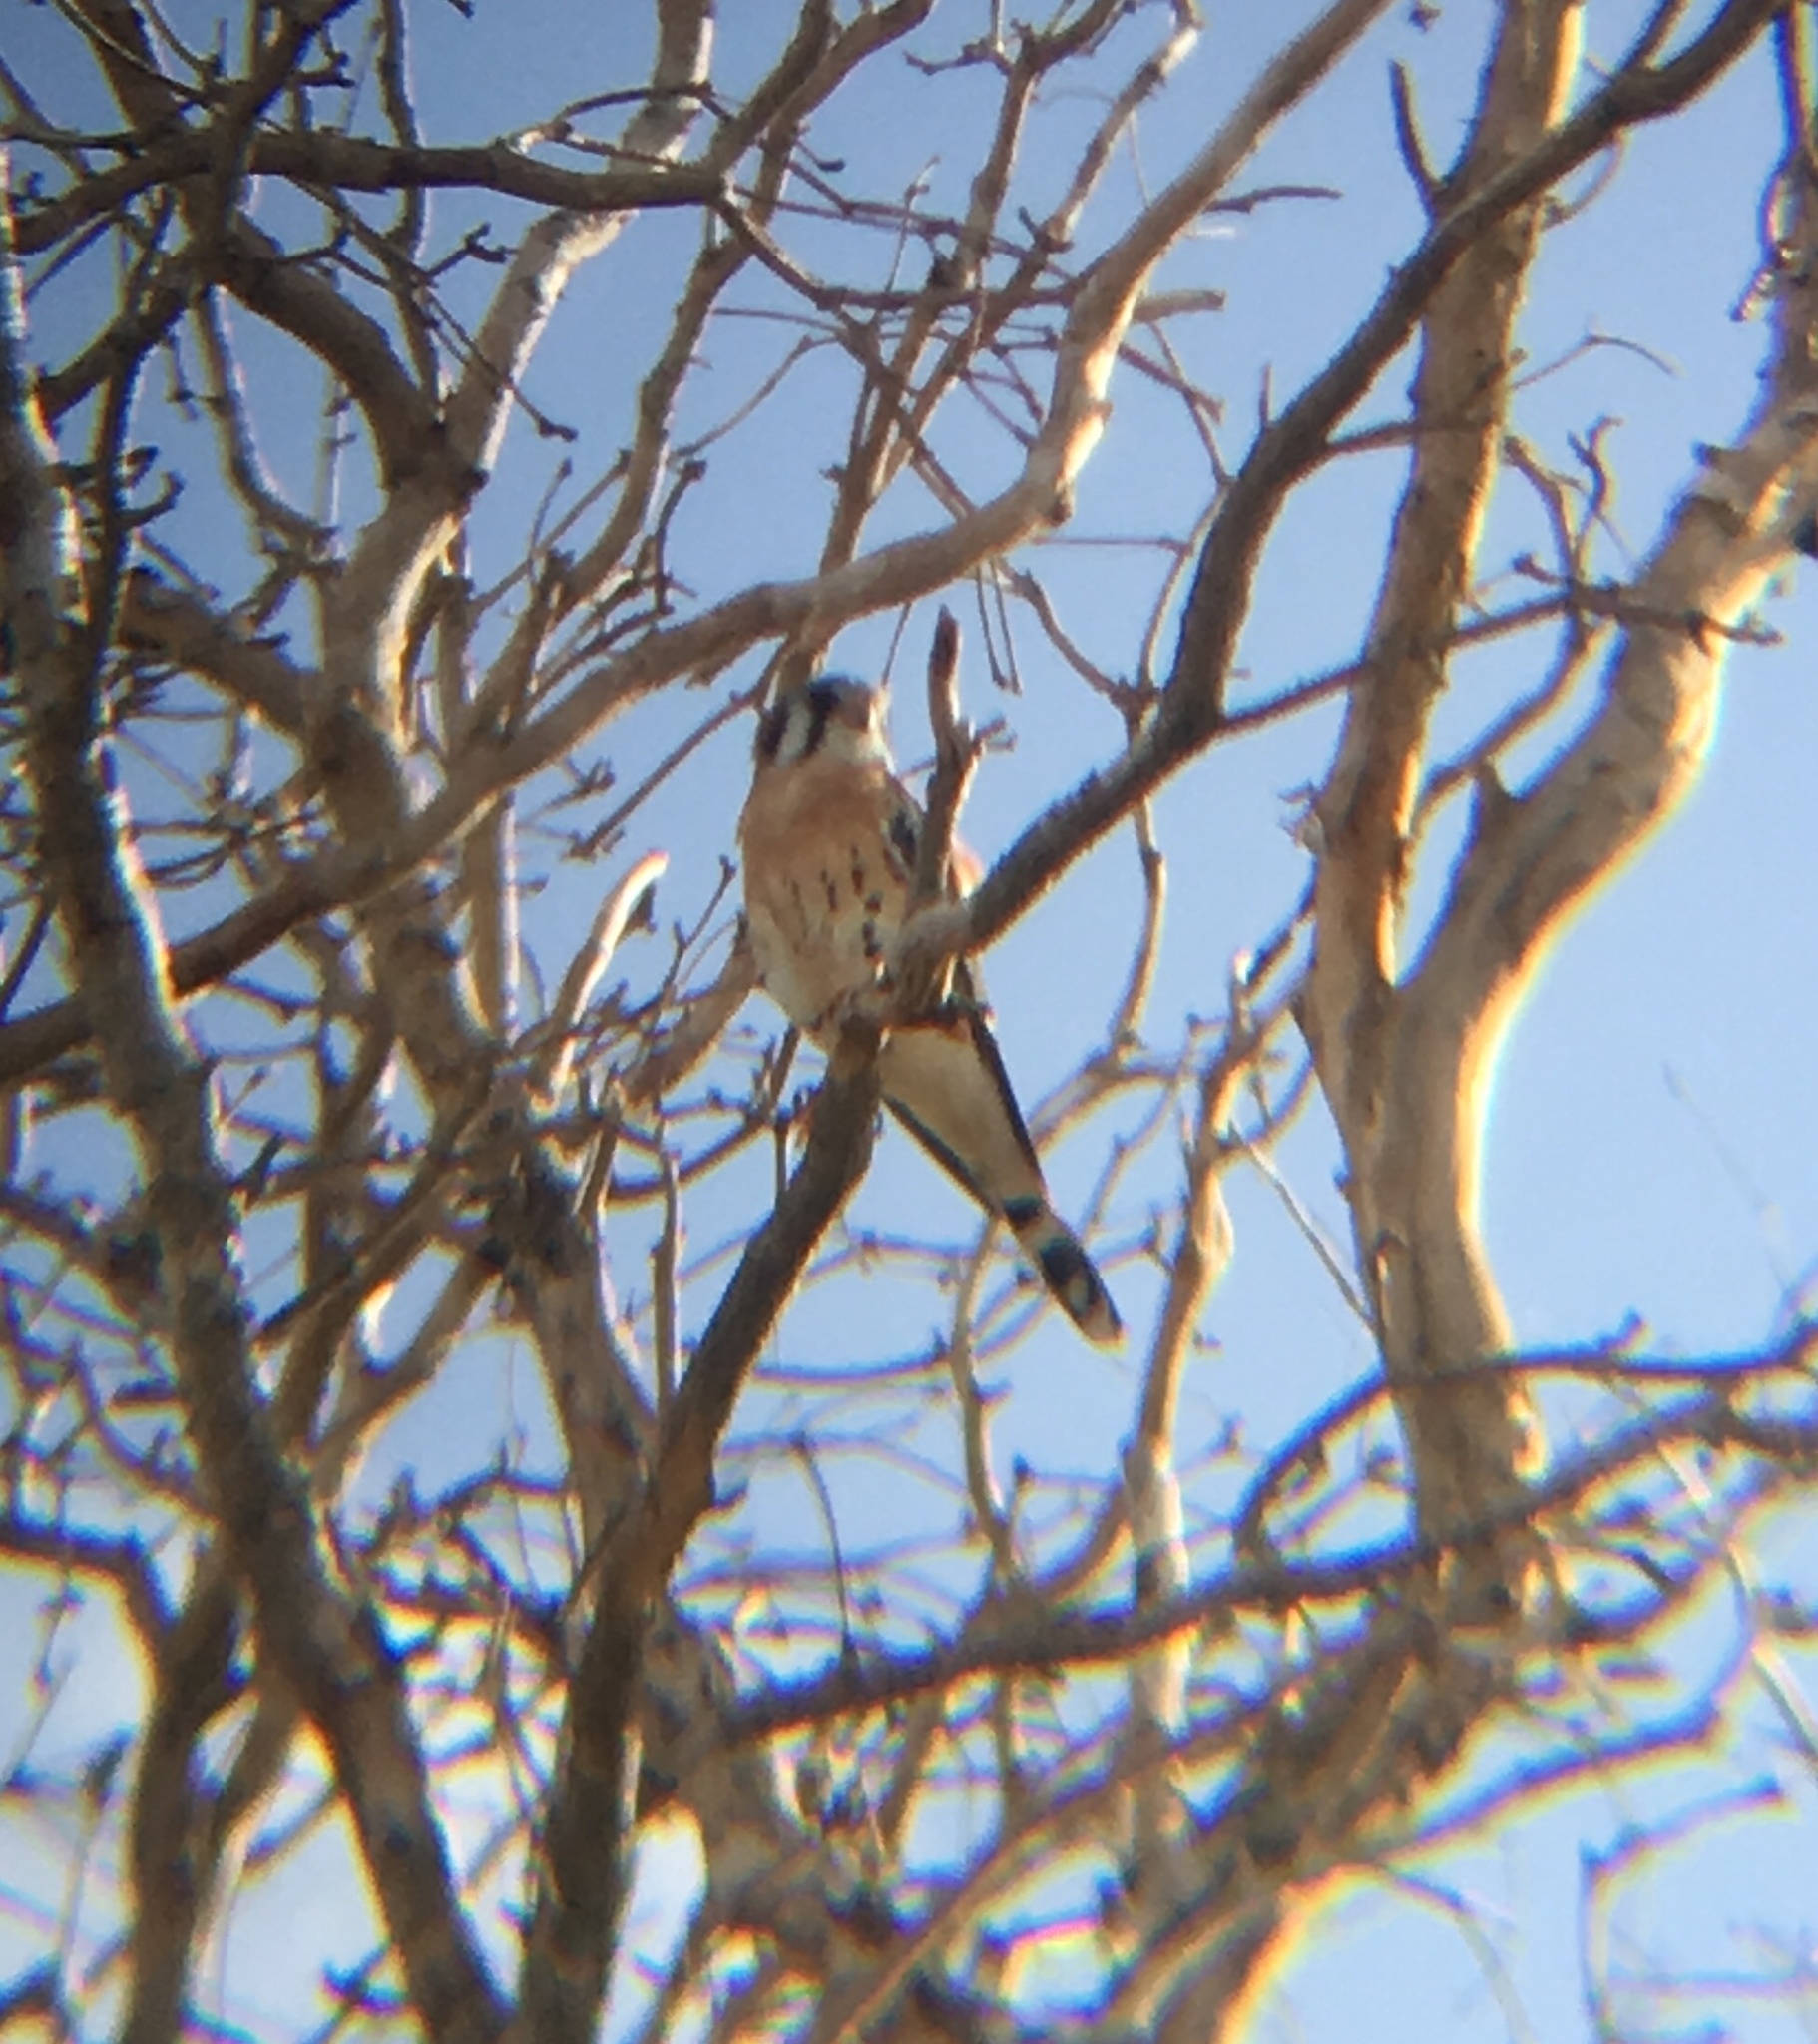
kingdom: Animalia
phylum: Chordata
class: Aves
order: Falconiformes
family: Falconidae
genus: Falco
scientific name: Falco sparverius
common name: American kestrel
